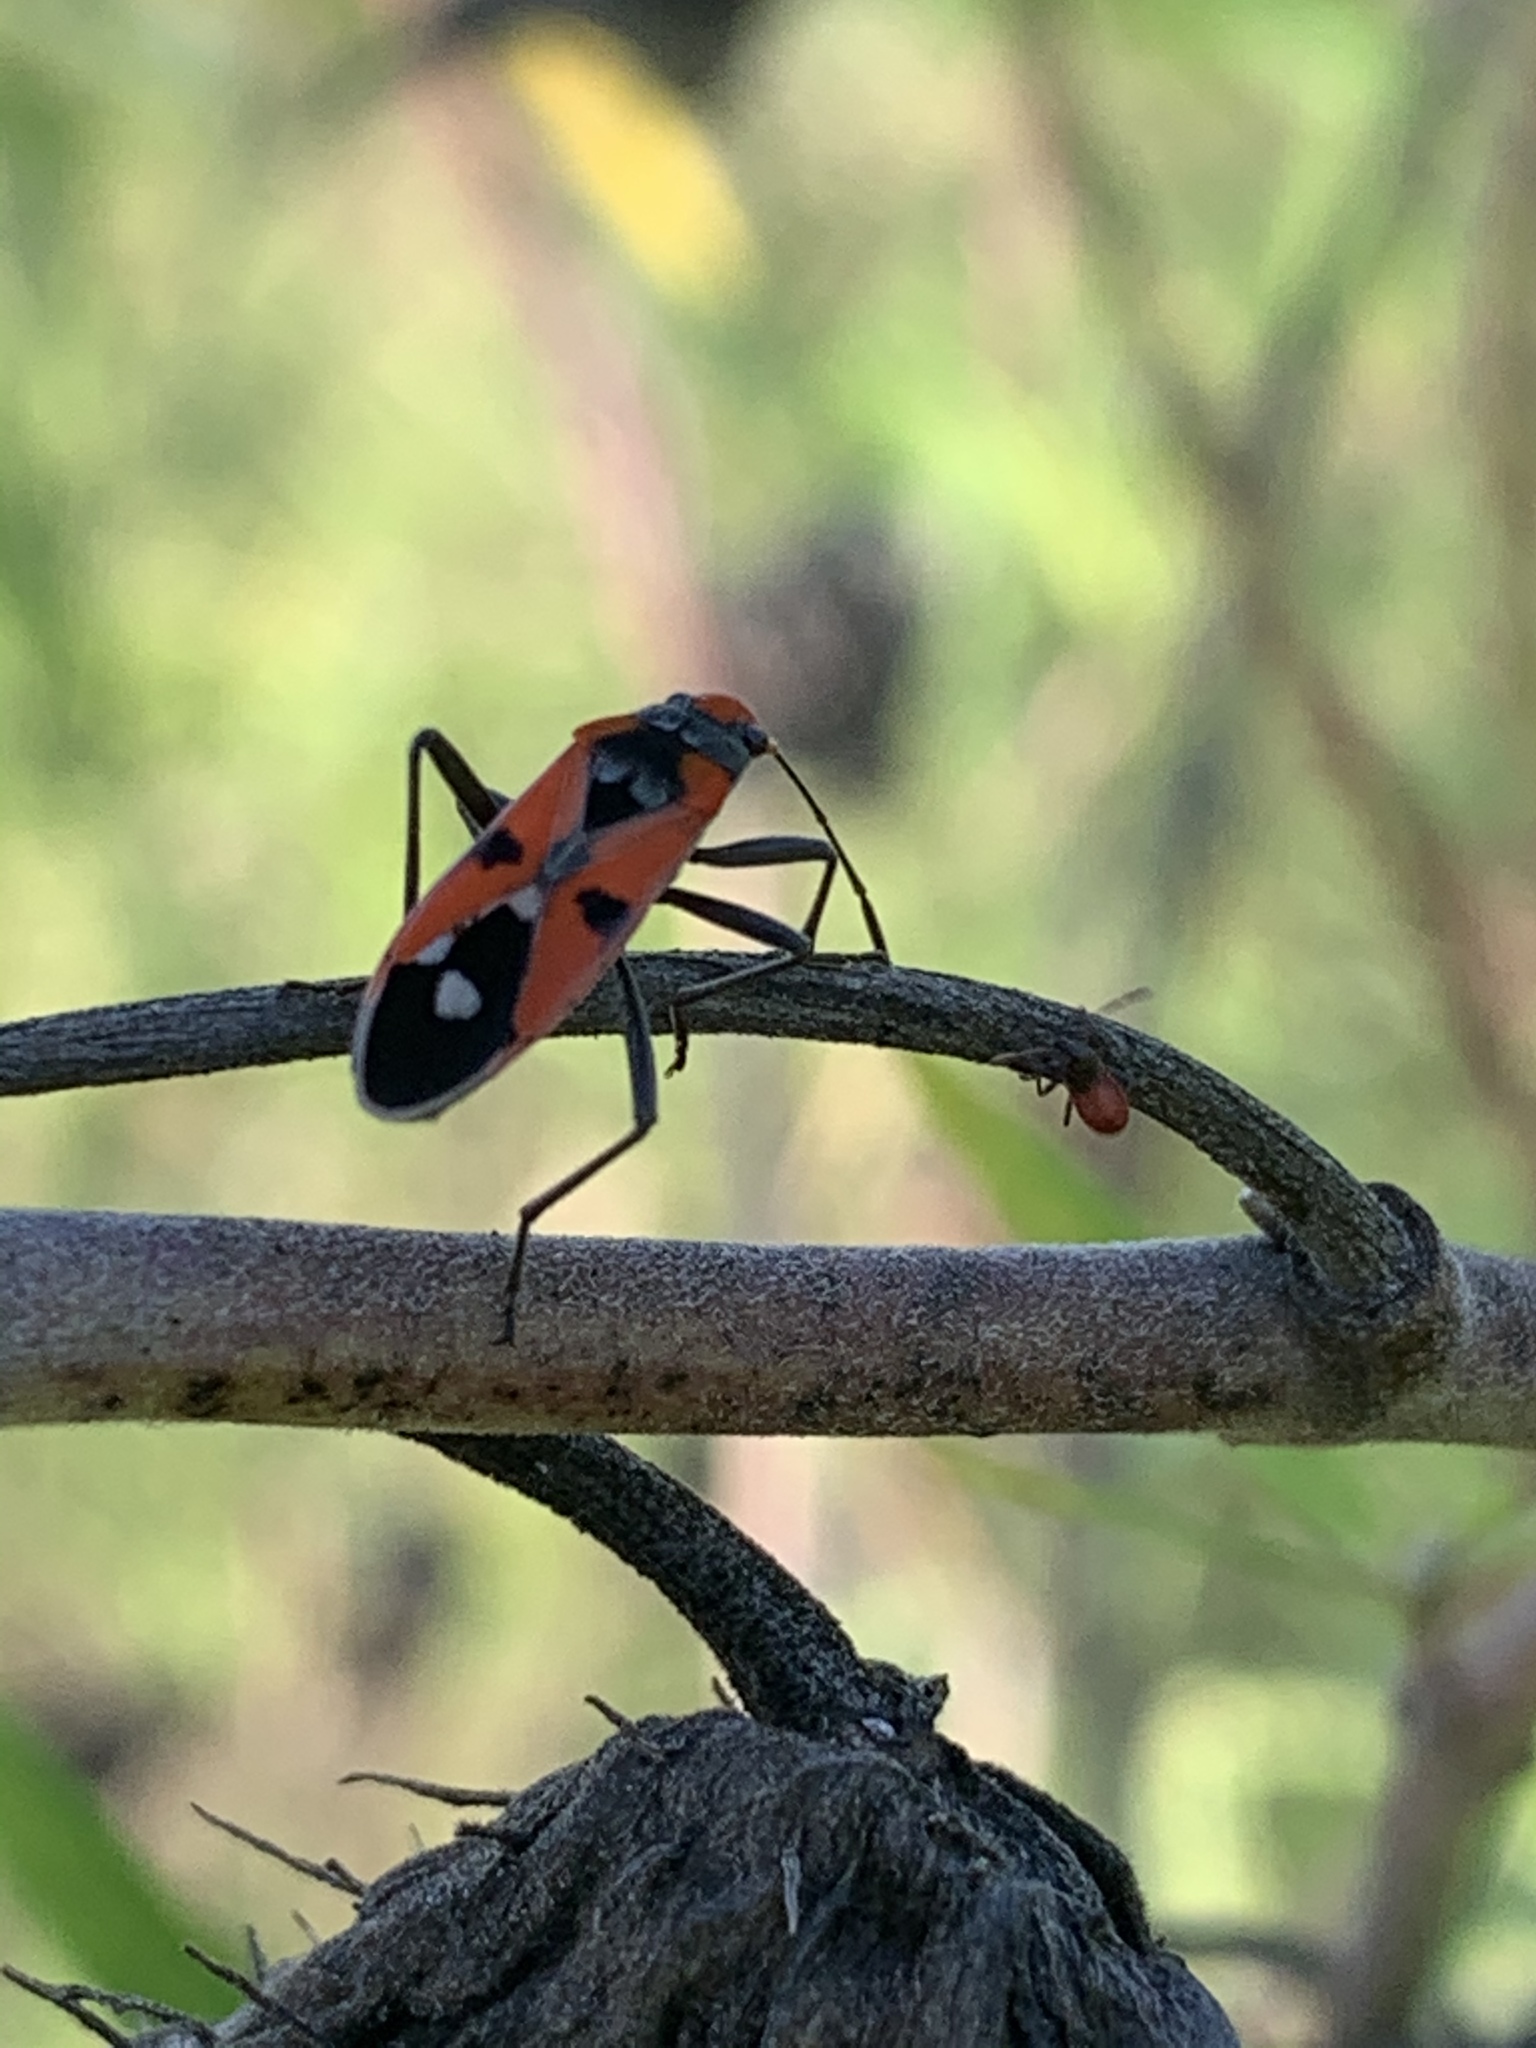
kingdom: Animalia
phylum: Arthropoda
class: Insecta
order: Hemiptera
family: Lygaeidae
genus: Melanerythrus
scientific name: Melanerythrus mactans
